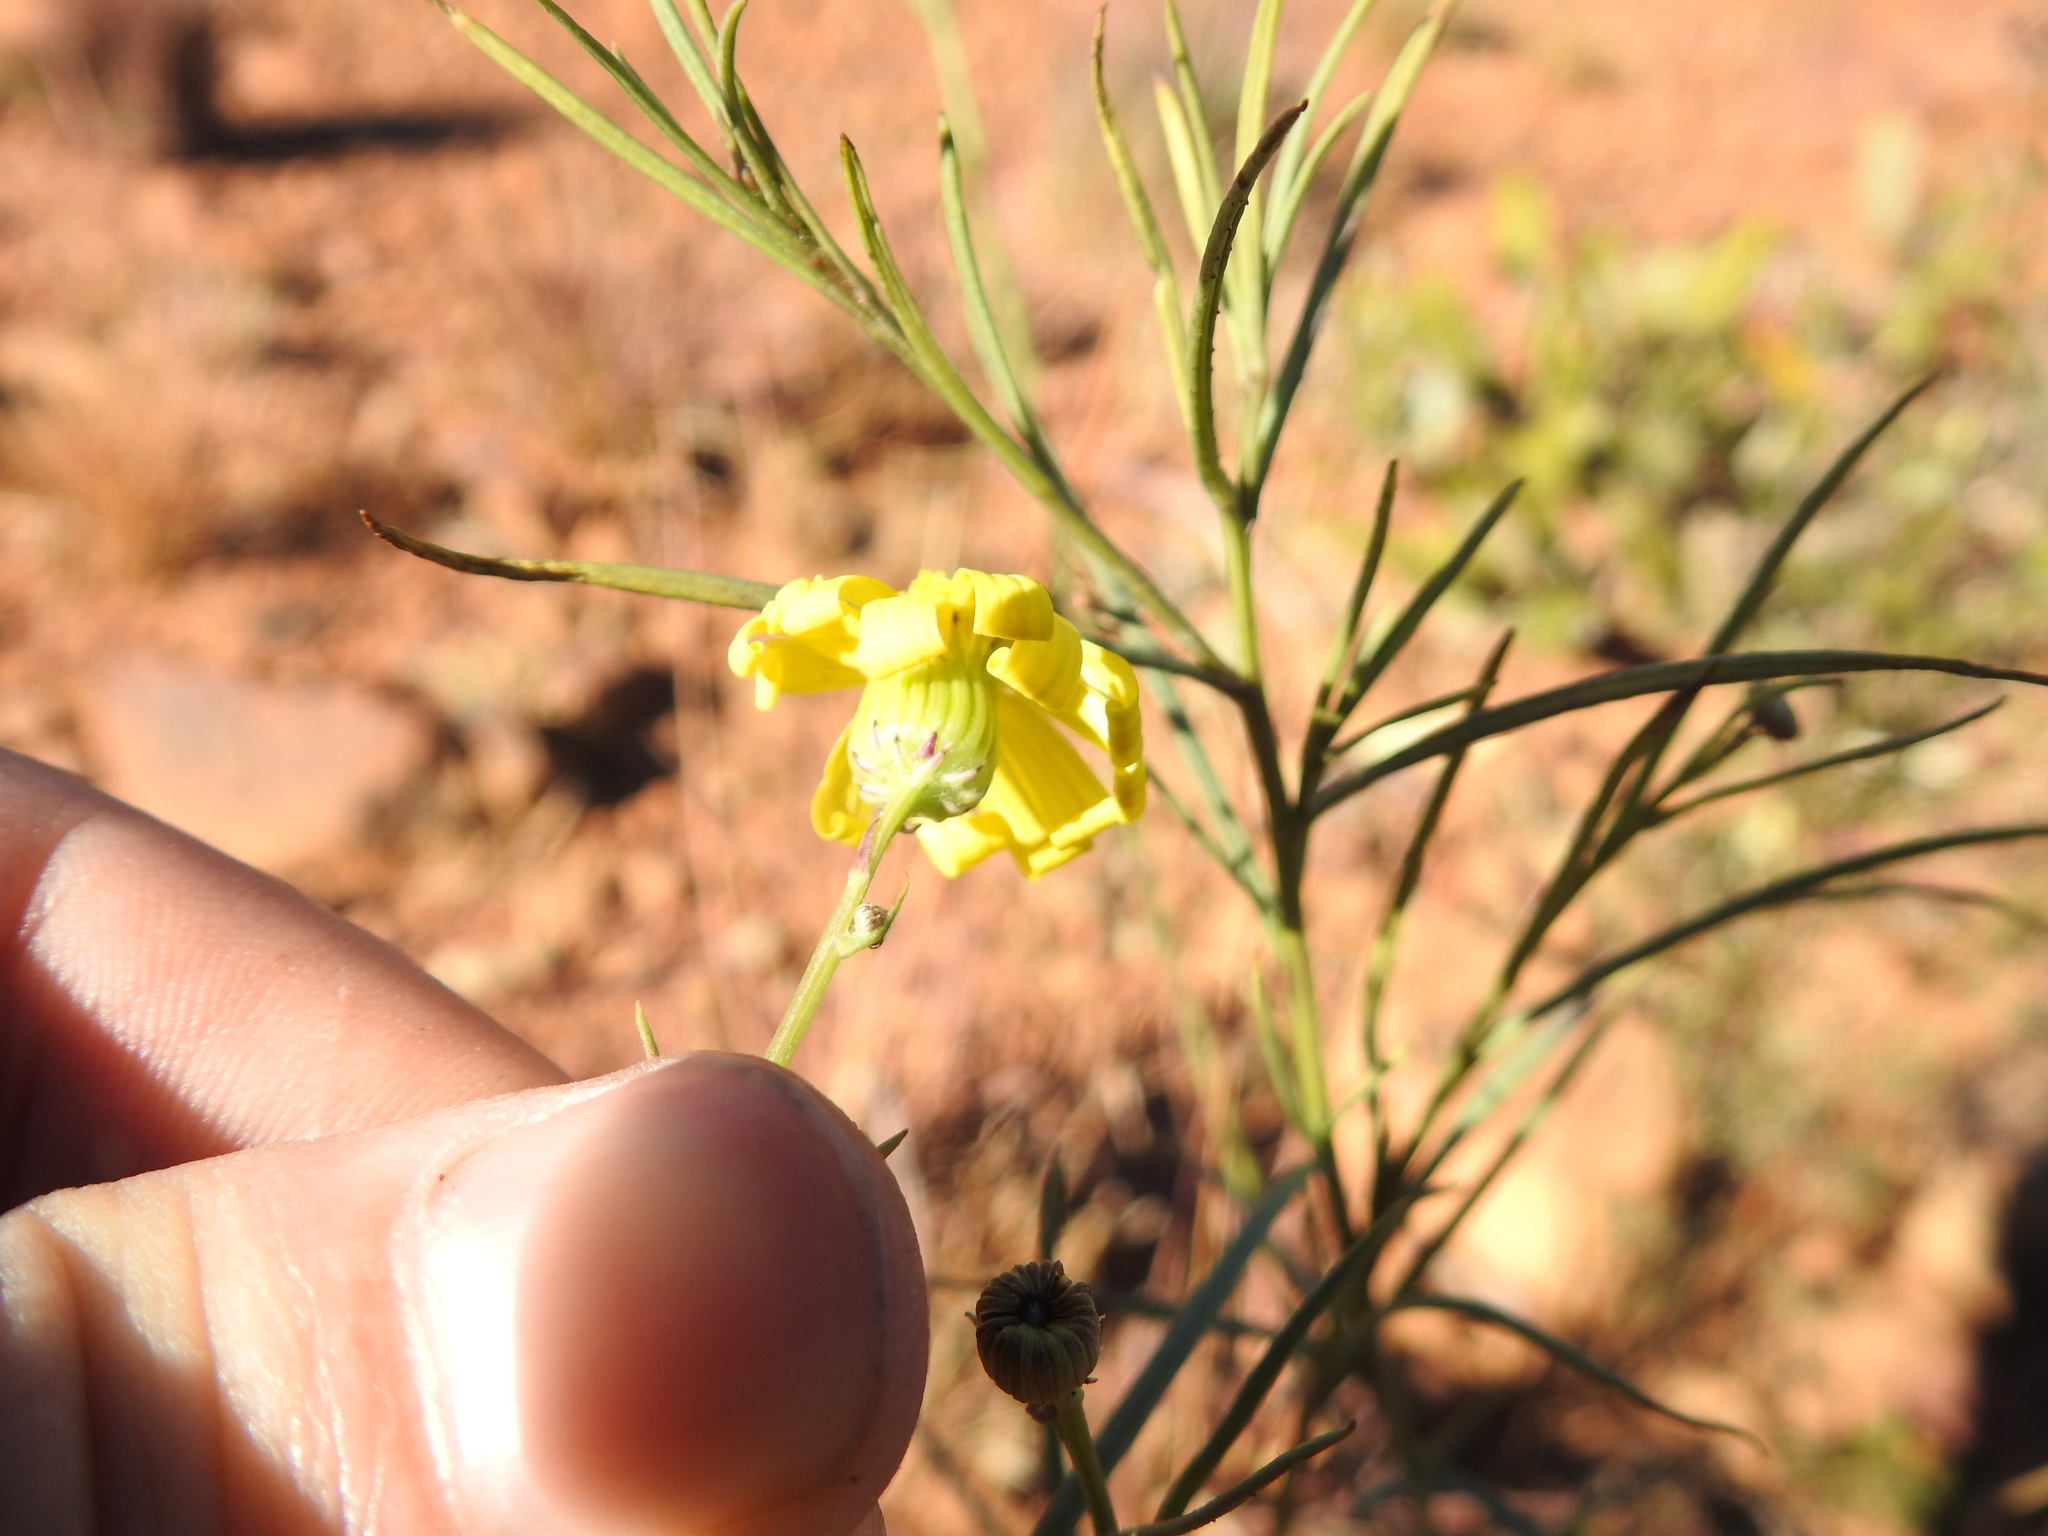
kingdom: Plantae
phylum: Tracheophyta
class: Magnoliopsida
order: Asterales
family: Asteraceae
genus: Senecio
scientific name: Senecio inaequidens
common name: Narrow-leaved ragwort
